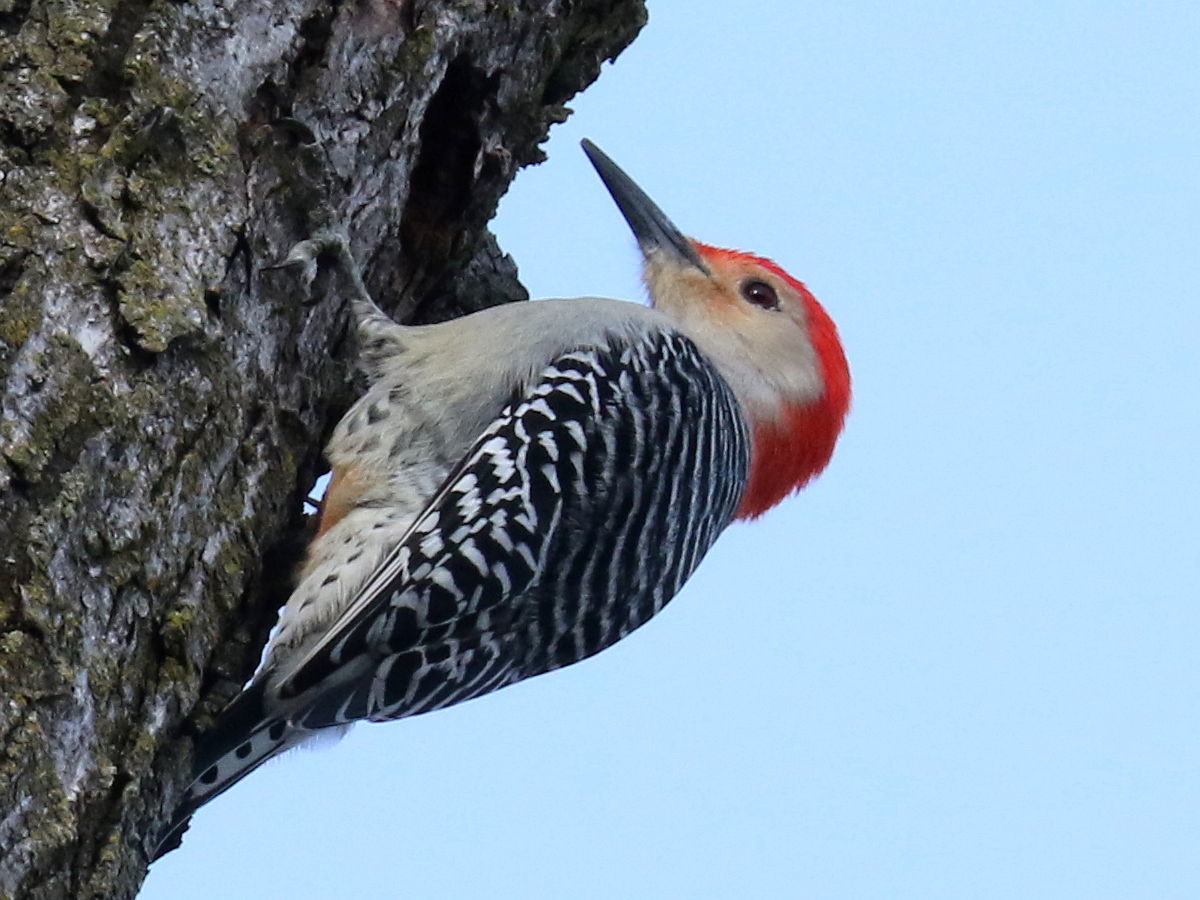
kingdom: Animalia
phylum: Chordata
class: Aves
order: Piciformes
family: Picidae
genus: Melanerpes
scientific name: Melanerpes carolinus
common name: Red-bellied woodpecker
